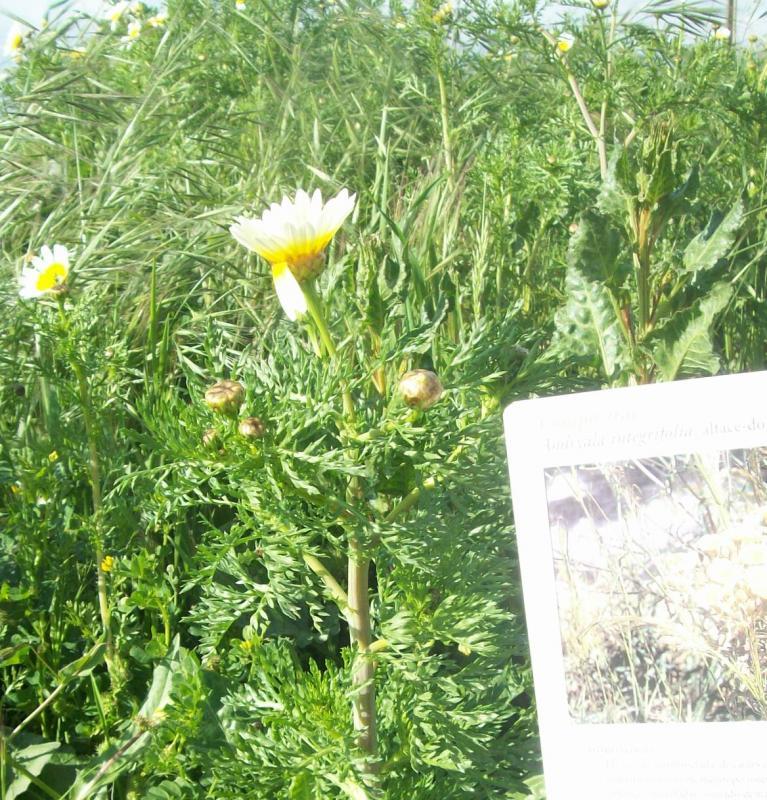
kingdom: Plantae
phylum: Tracheophyta
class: Magnoliopsida
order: Asterales
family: Asteraceae
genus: Glebionis
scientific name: Glebionis coronaria
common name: Crowndaisy
